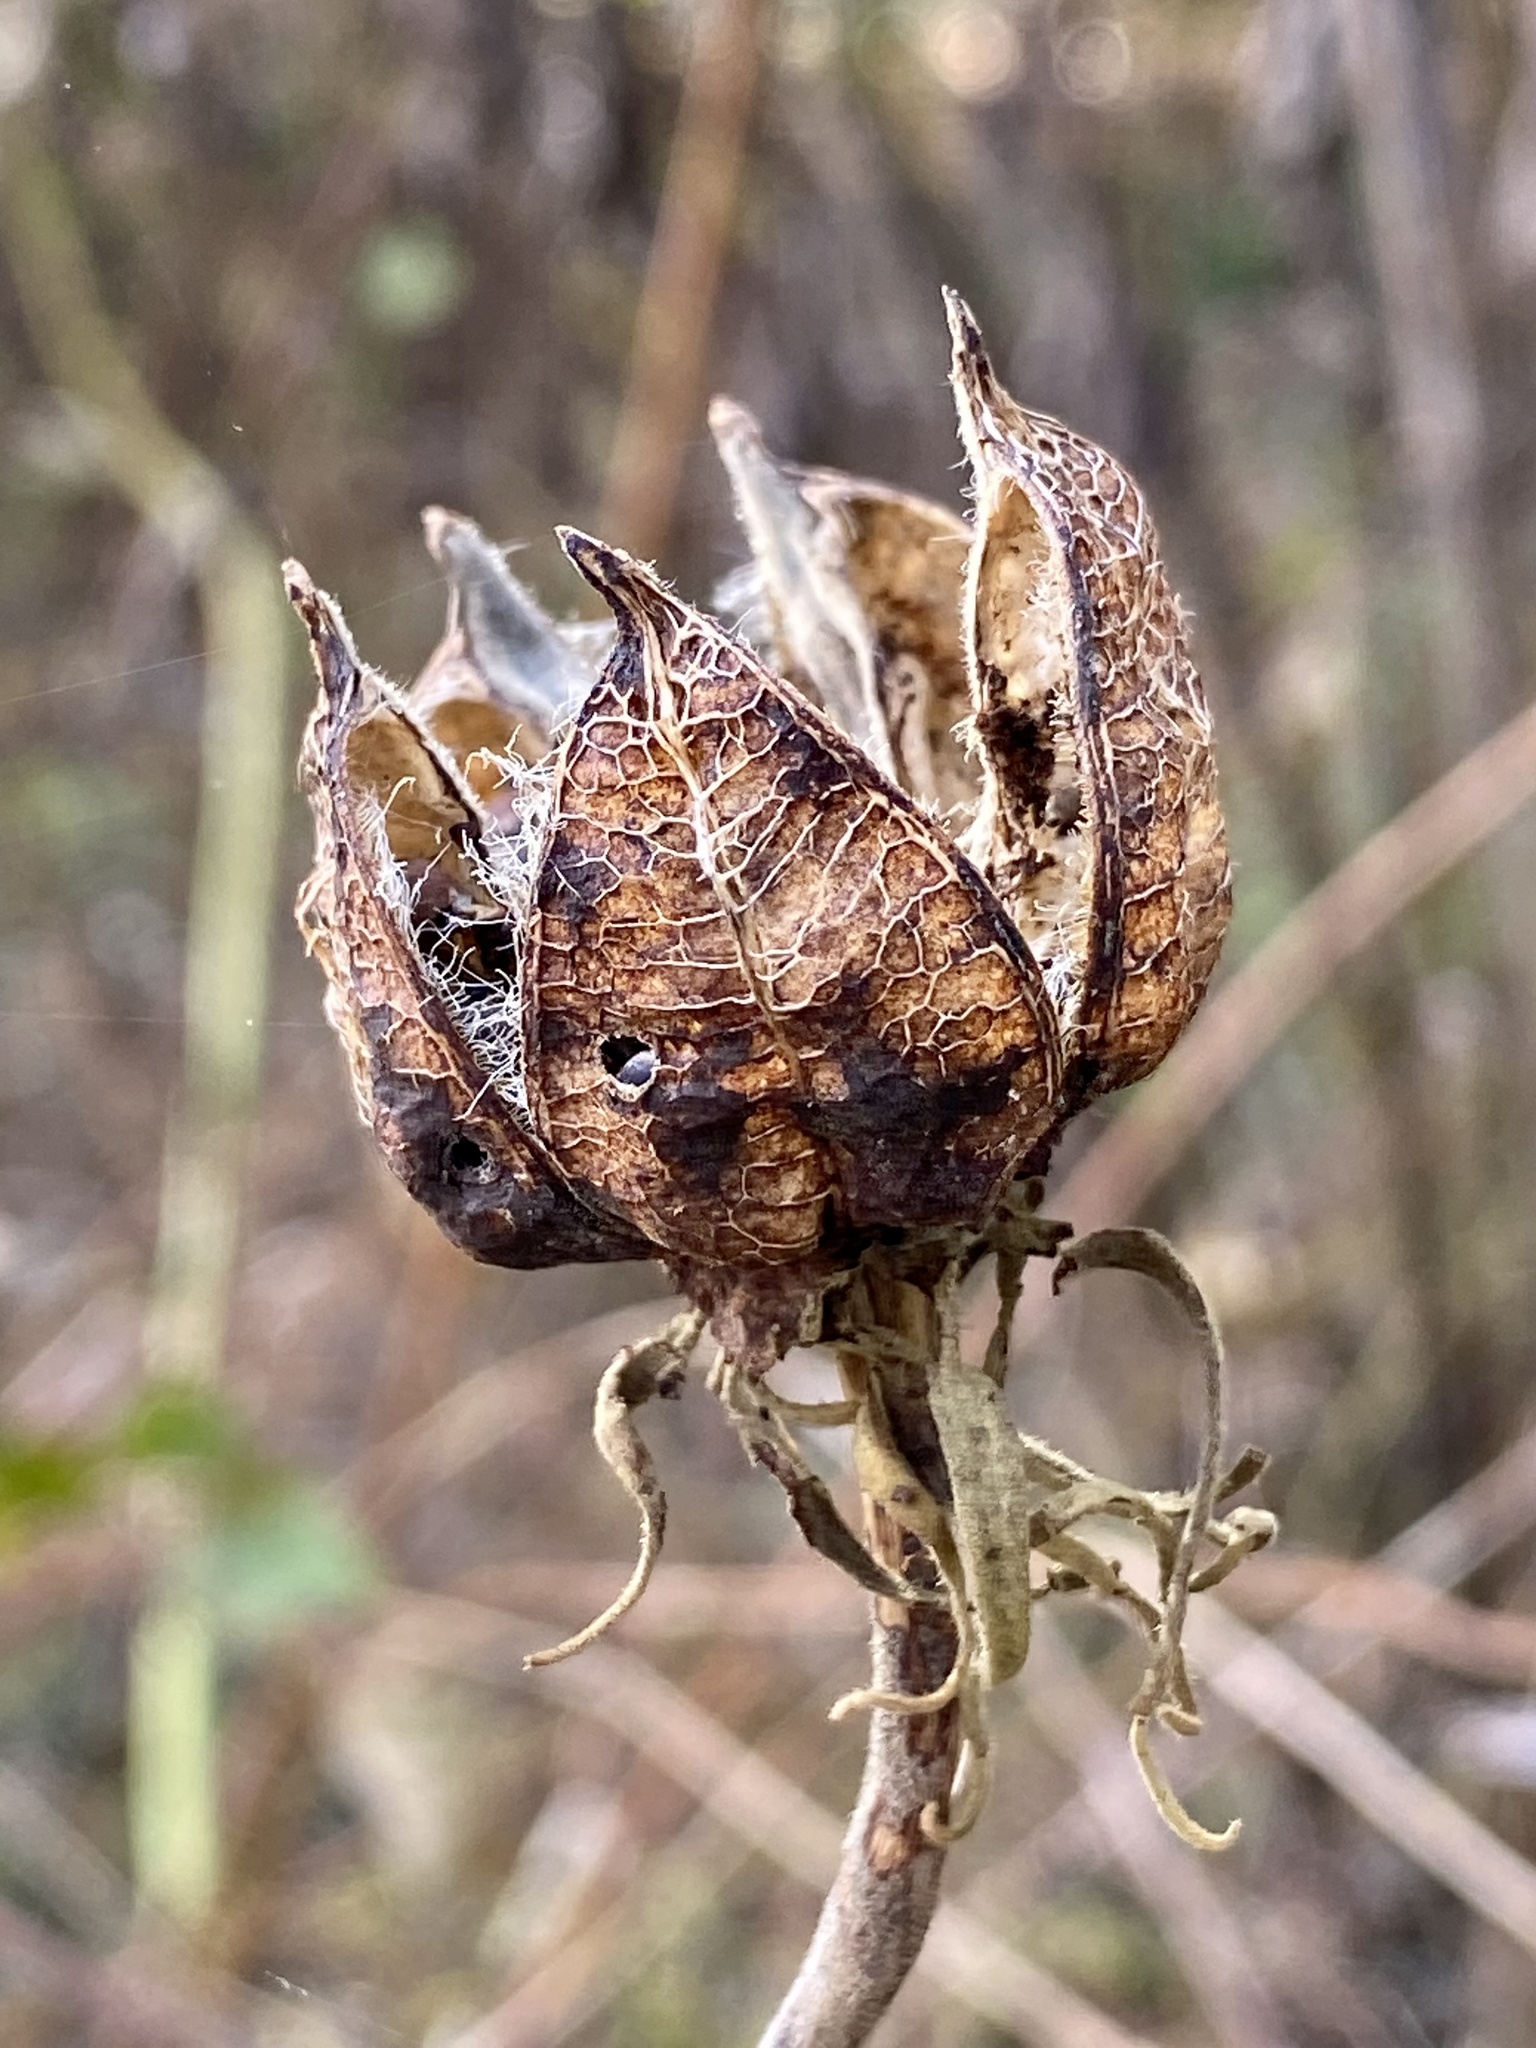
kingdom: Plantae
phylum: Tracheophyta
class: Magnoliopsida
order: Malvales
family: Malvaceae
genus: Hibiscus
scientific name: Hibiscus moscheutos
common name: Common rose-mallow
